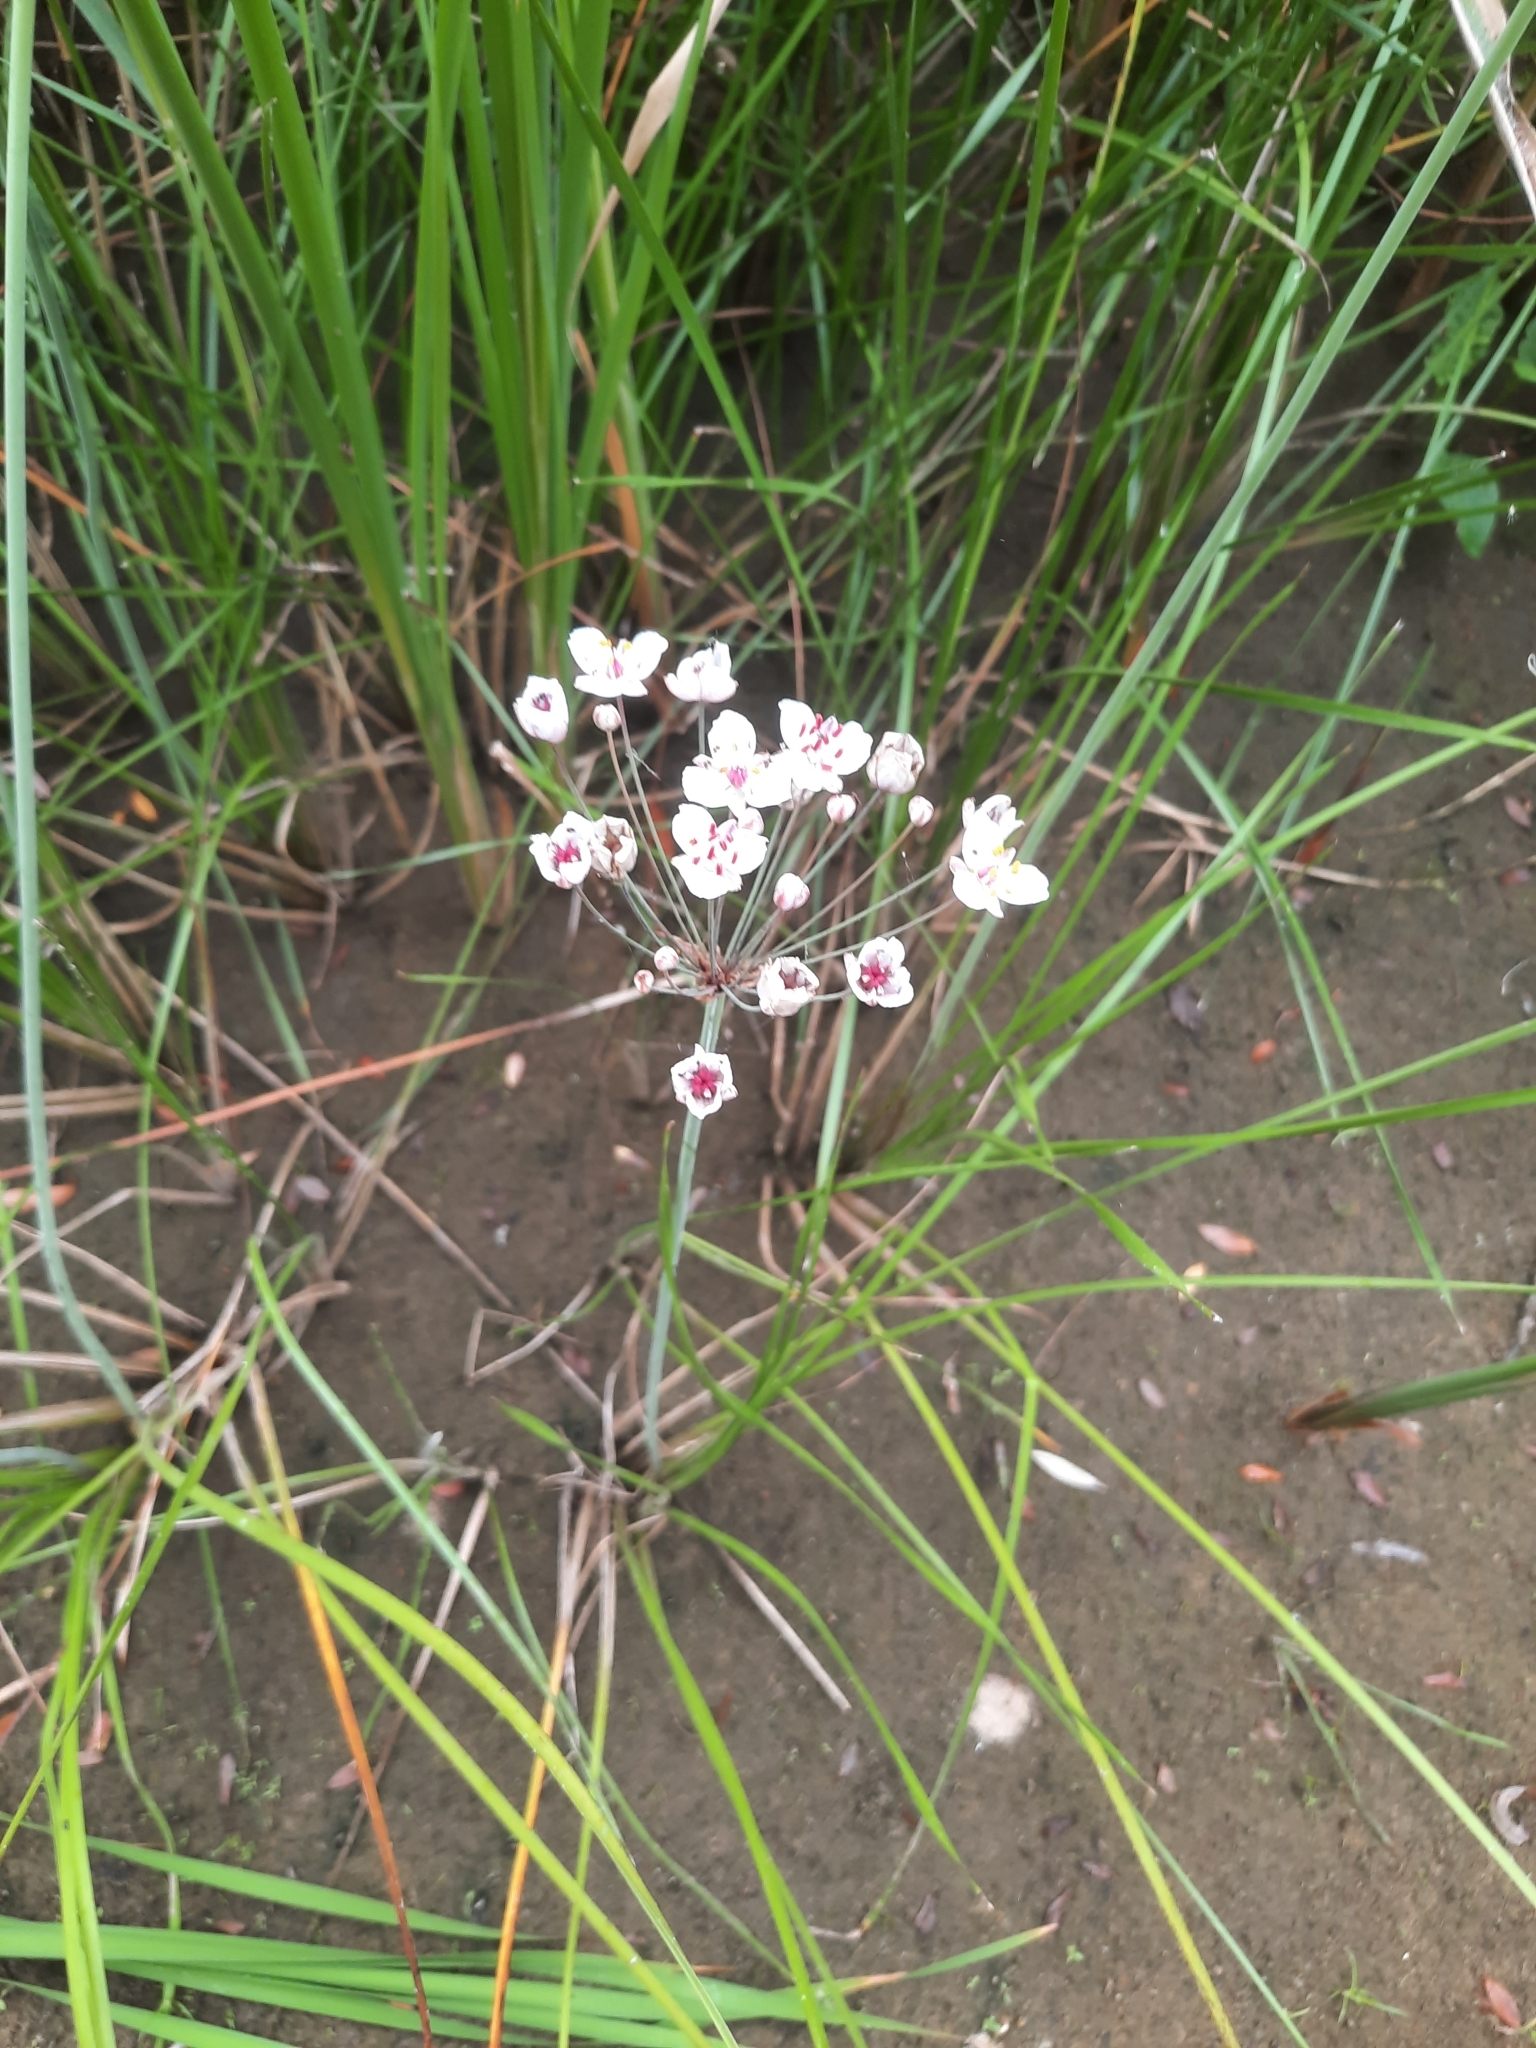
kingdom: Plantae
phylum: Tracheophyta
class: Liliopsida
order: Alismatales
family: Butomaceae
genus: Butomus
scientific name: Butomus umbellatus
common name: Flowering-rush
